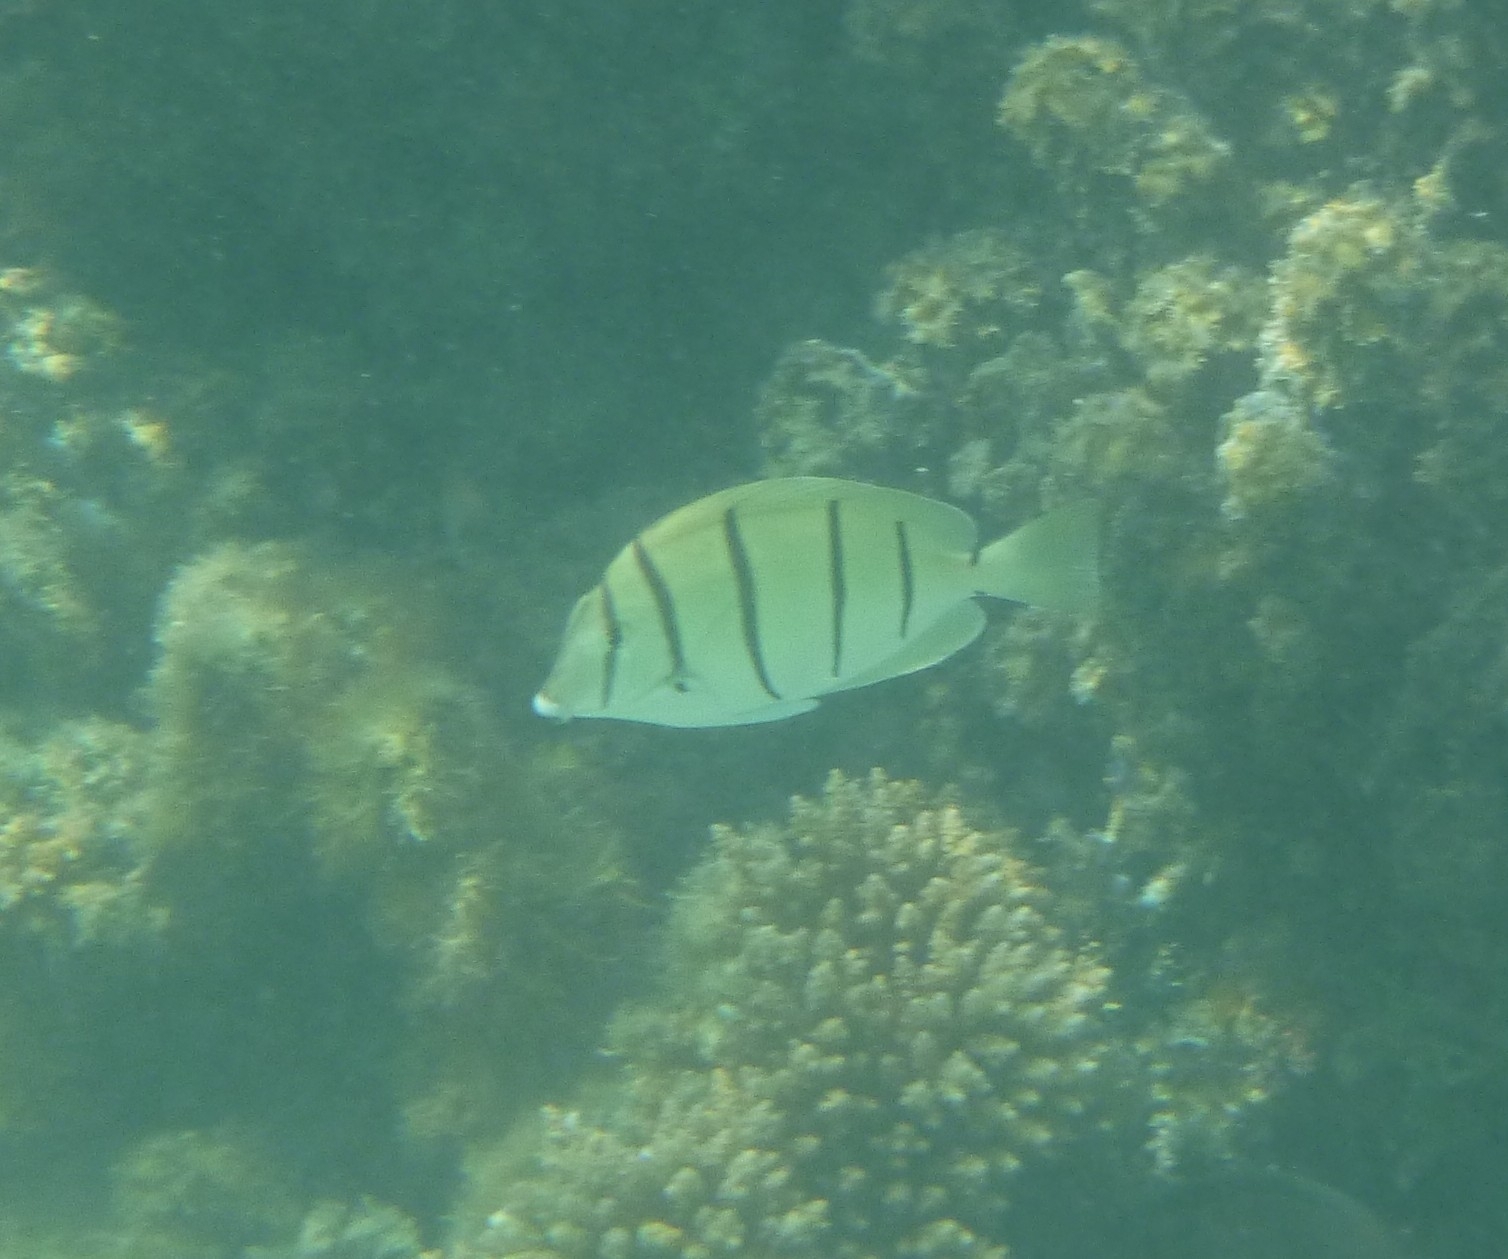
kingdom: Animalia
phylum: Chordata
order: Perciformes
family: Acanthuridae
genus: Acanthurus
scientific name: Acanthurus triostegus
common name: Convict surgeonfish
